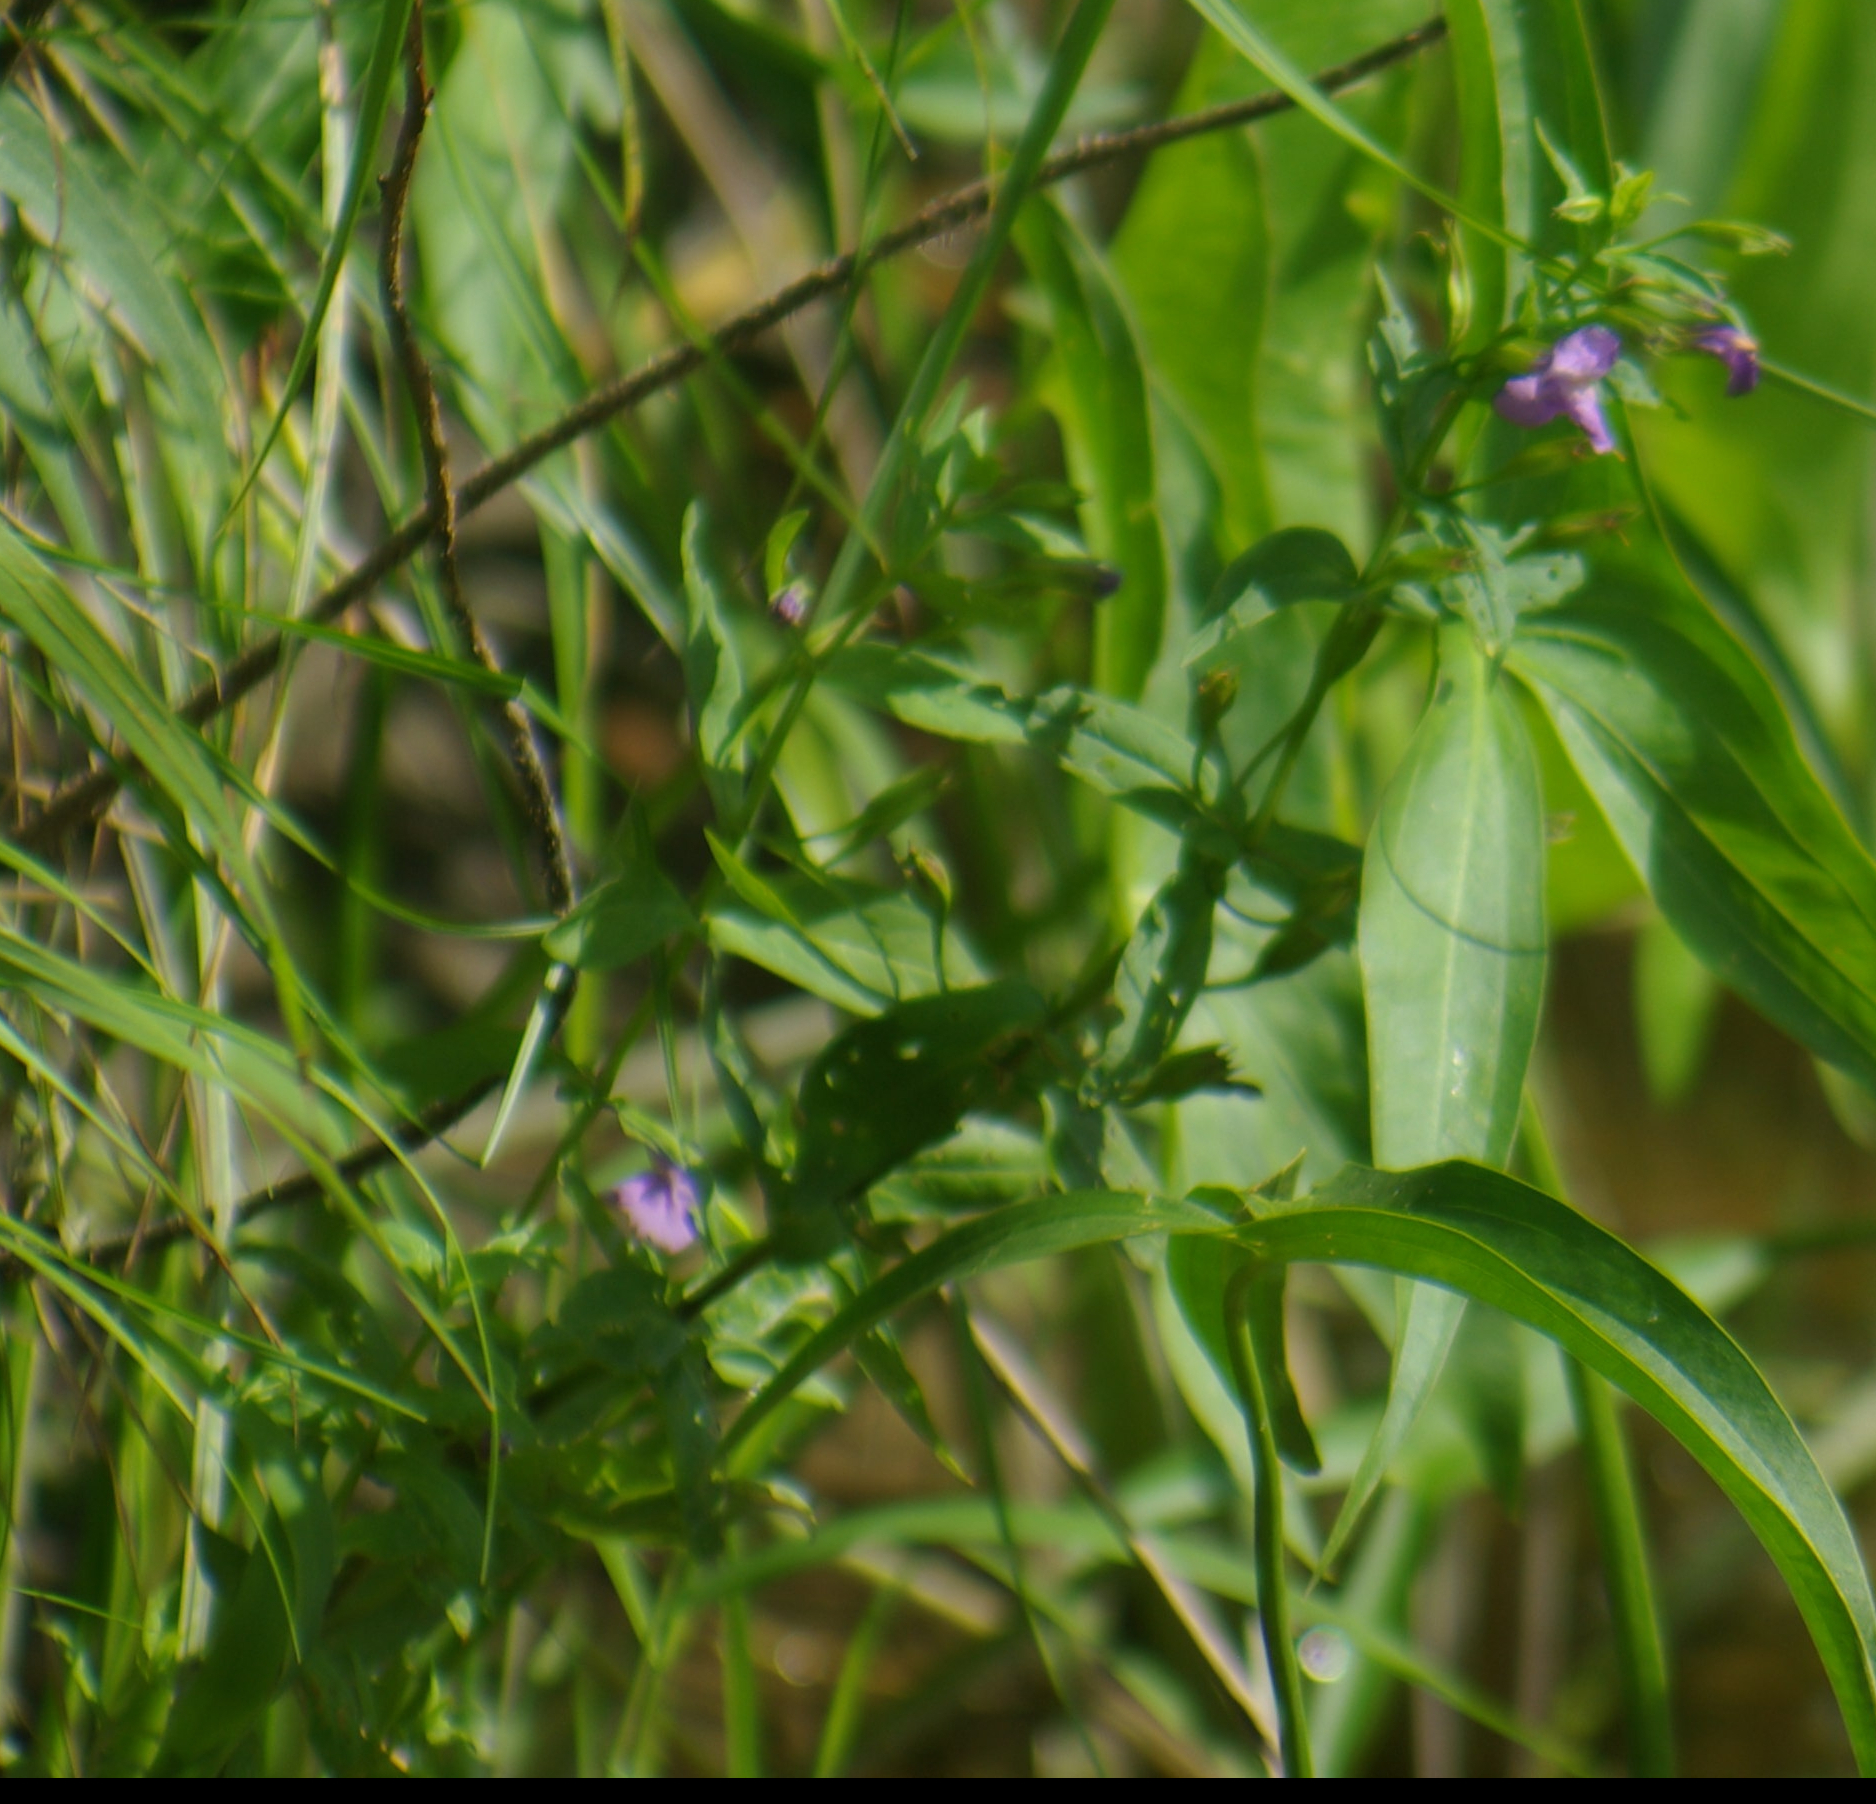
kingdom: Plantae
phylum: Tracheophyta
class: Magnoliopsida
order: Lamiales
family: Phrymaceae
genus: Mimulus
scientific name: Mimulus ringens
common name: Allegheny monkeyflower
